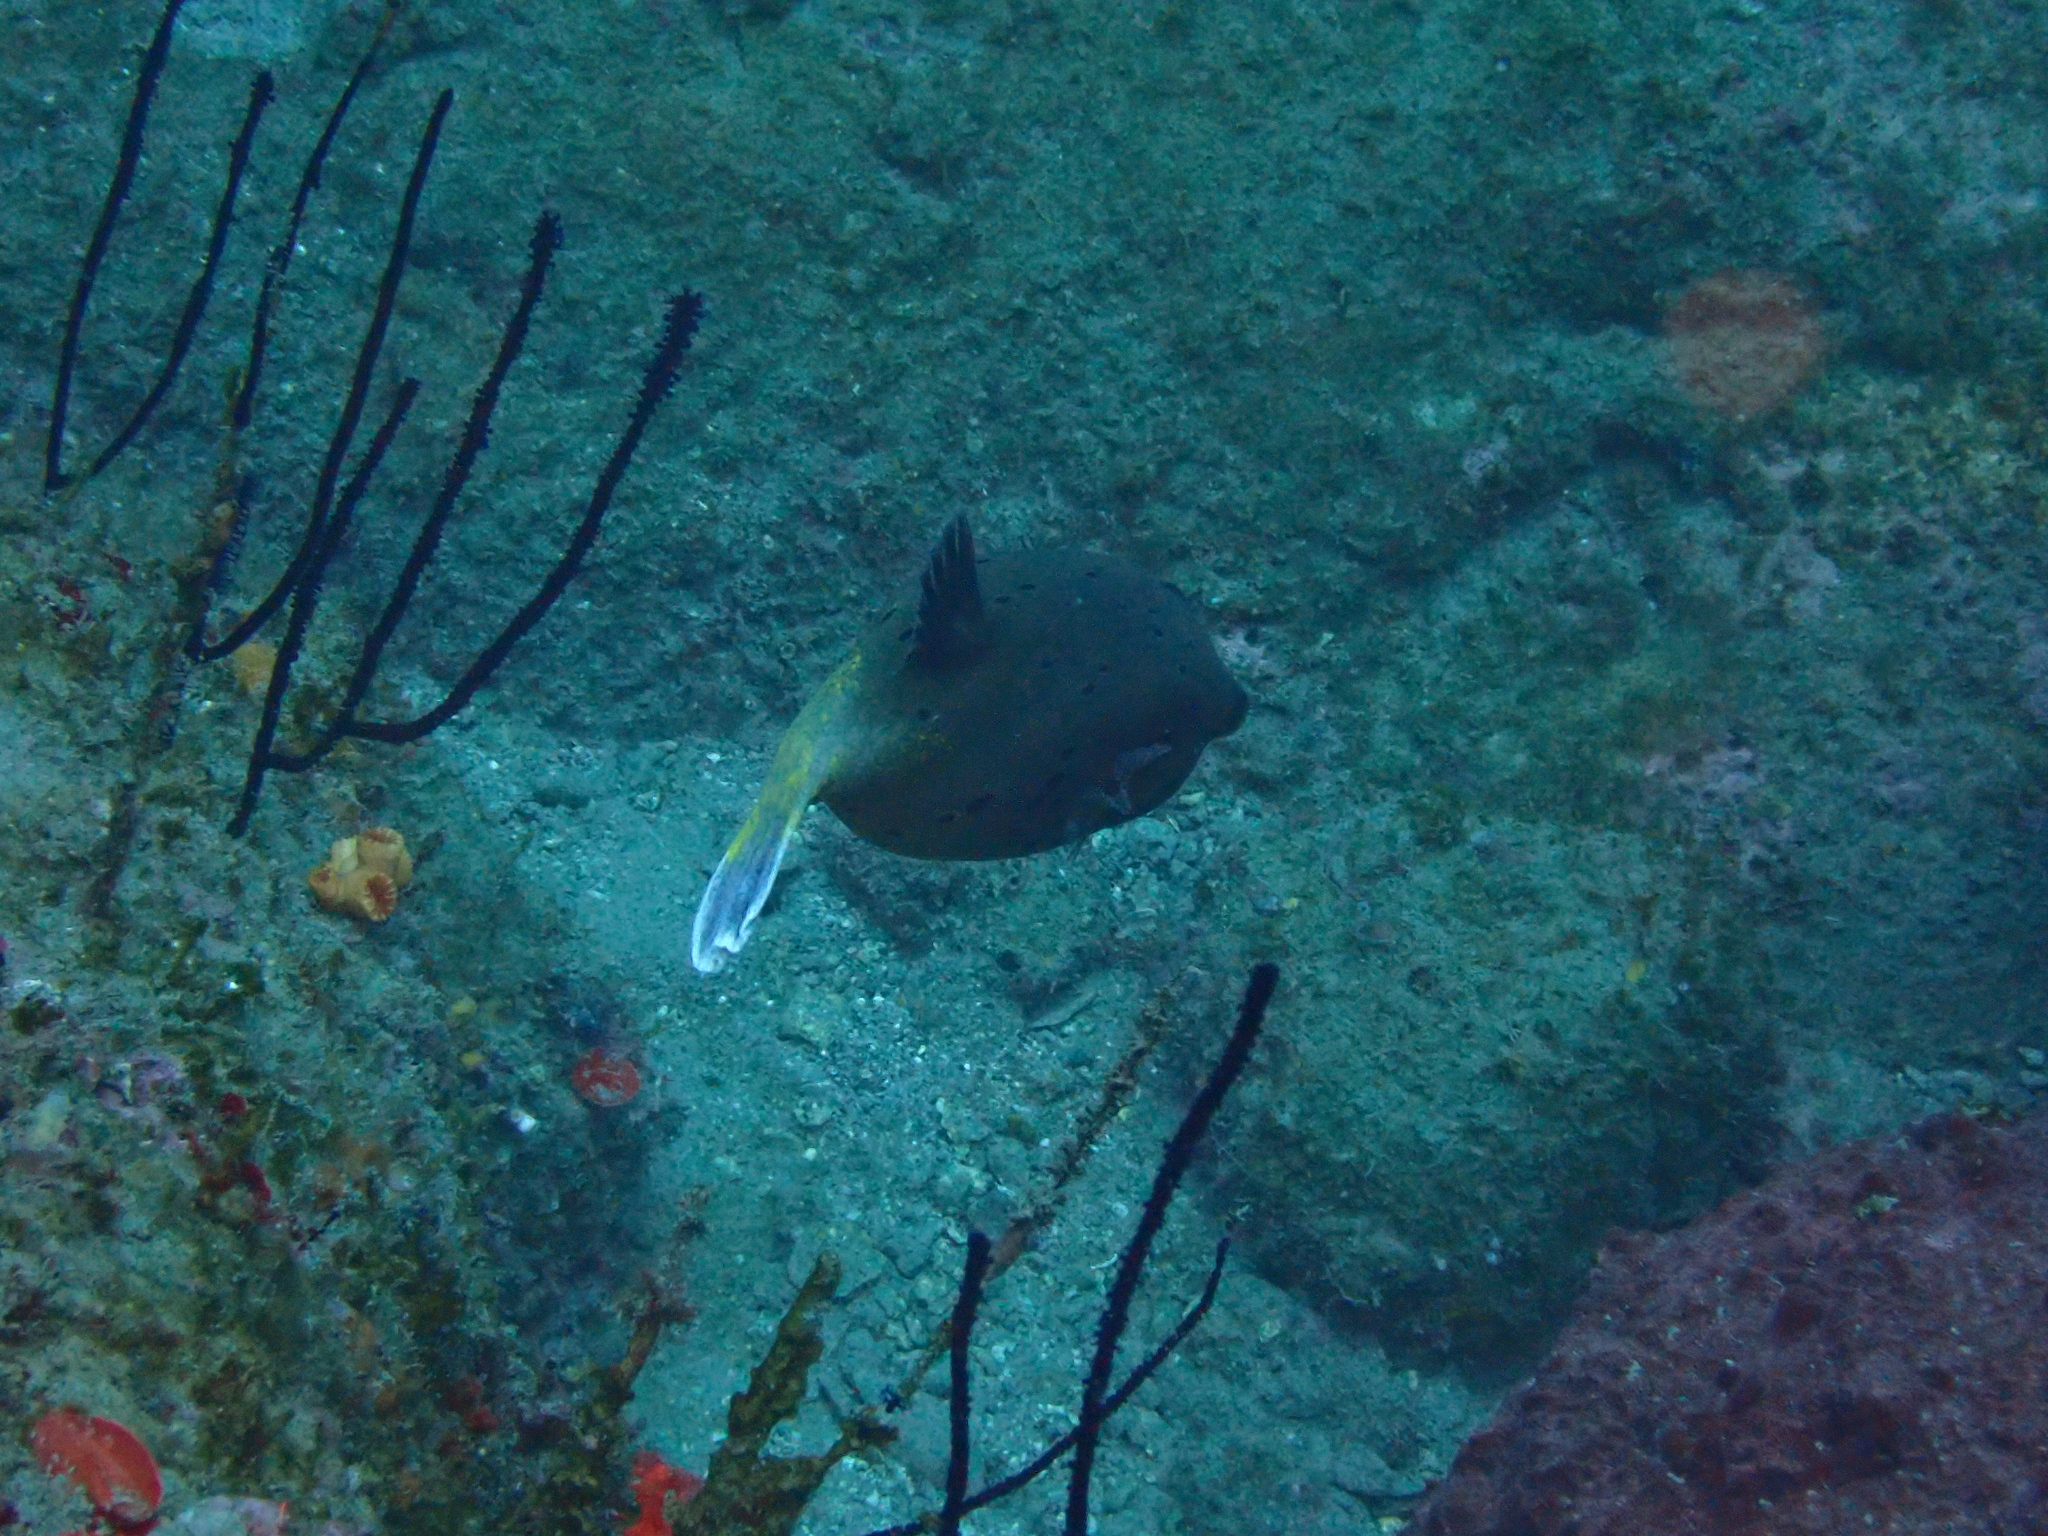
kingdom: Animalia
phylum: Chordata
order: Tetraodontiformes
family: Tetraodontidae
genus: Arothron
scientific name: Arothron nigropunctatus
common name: Black spotted blow fish
